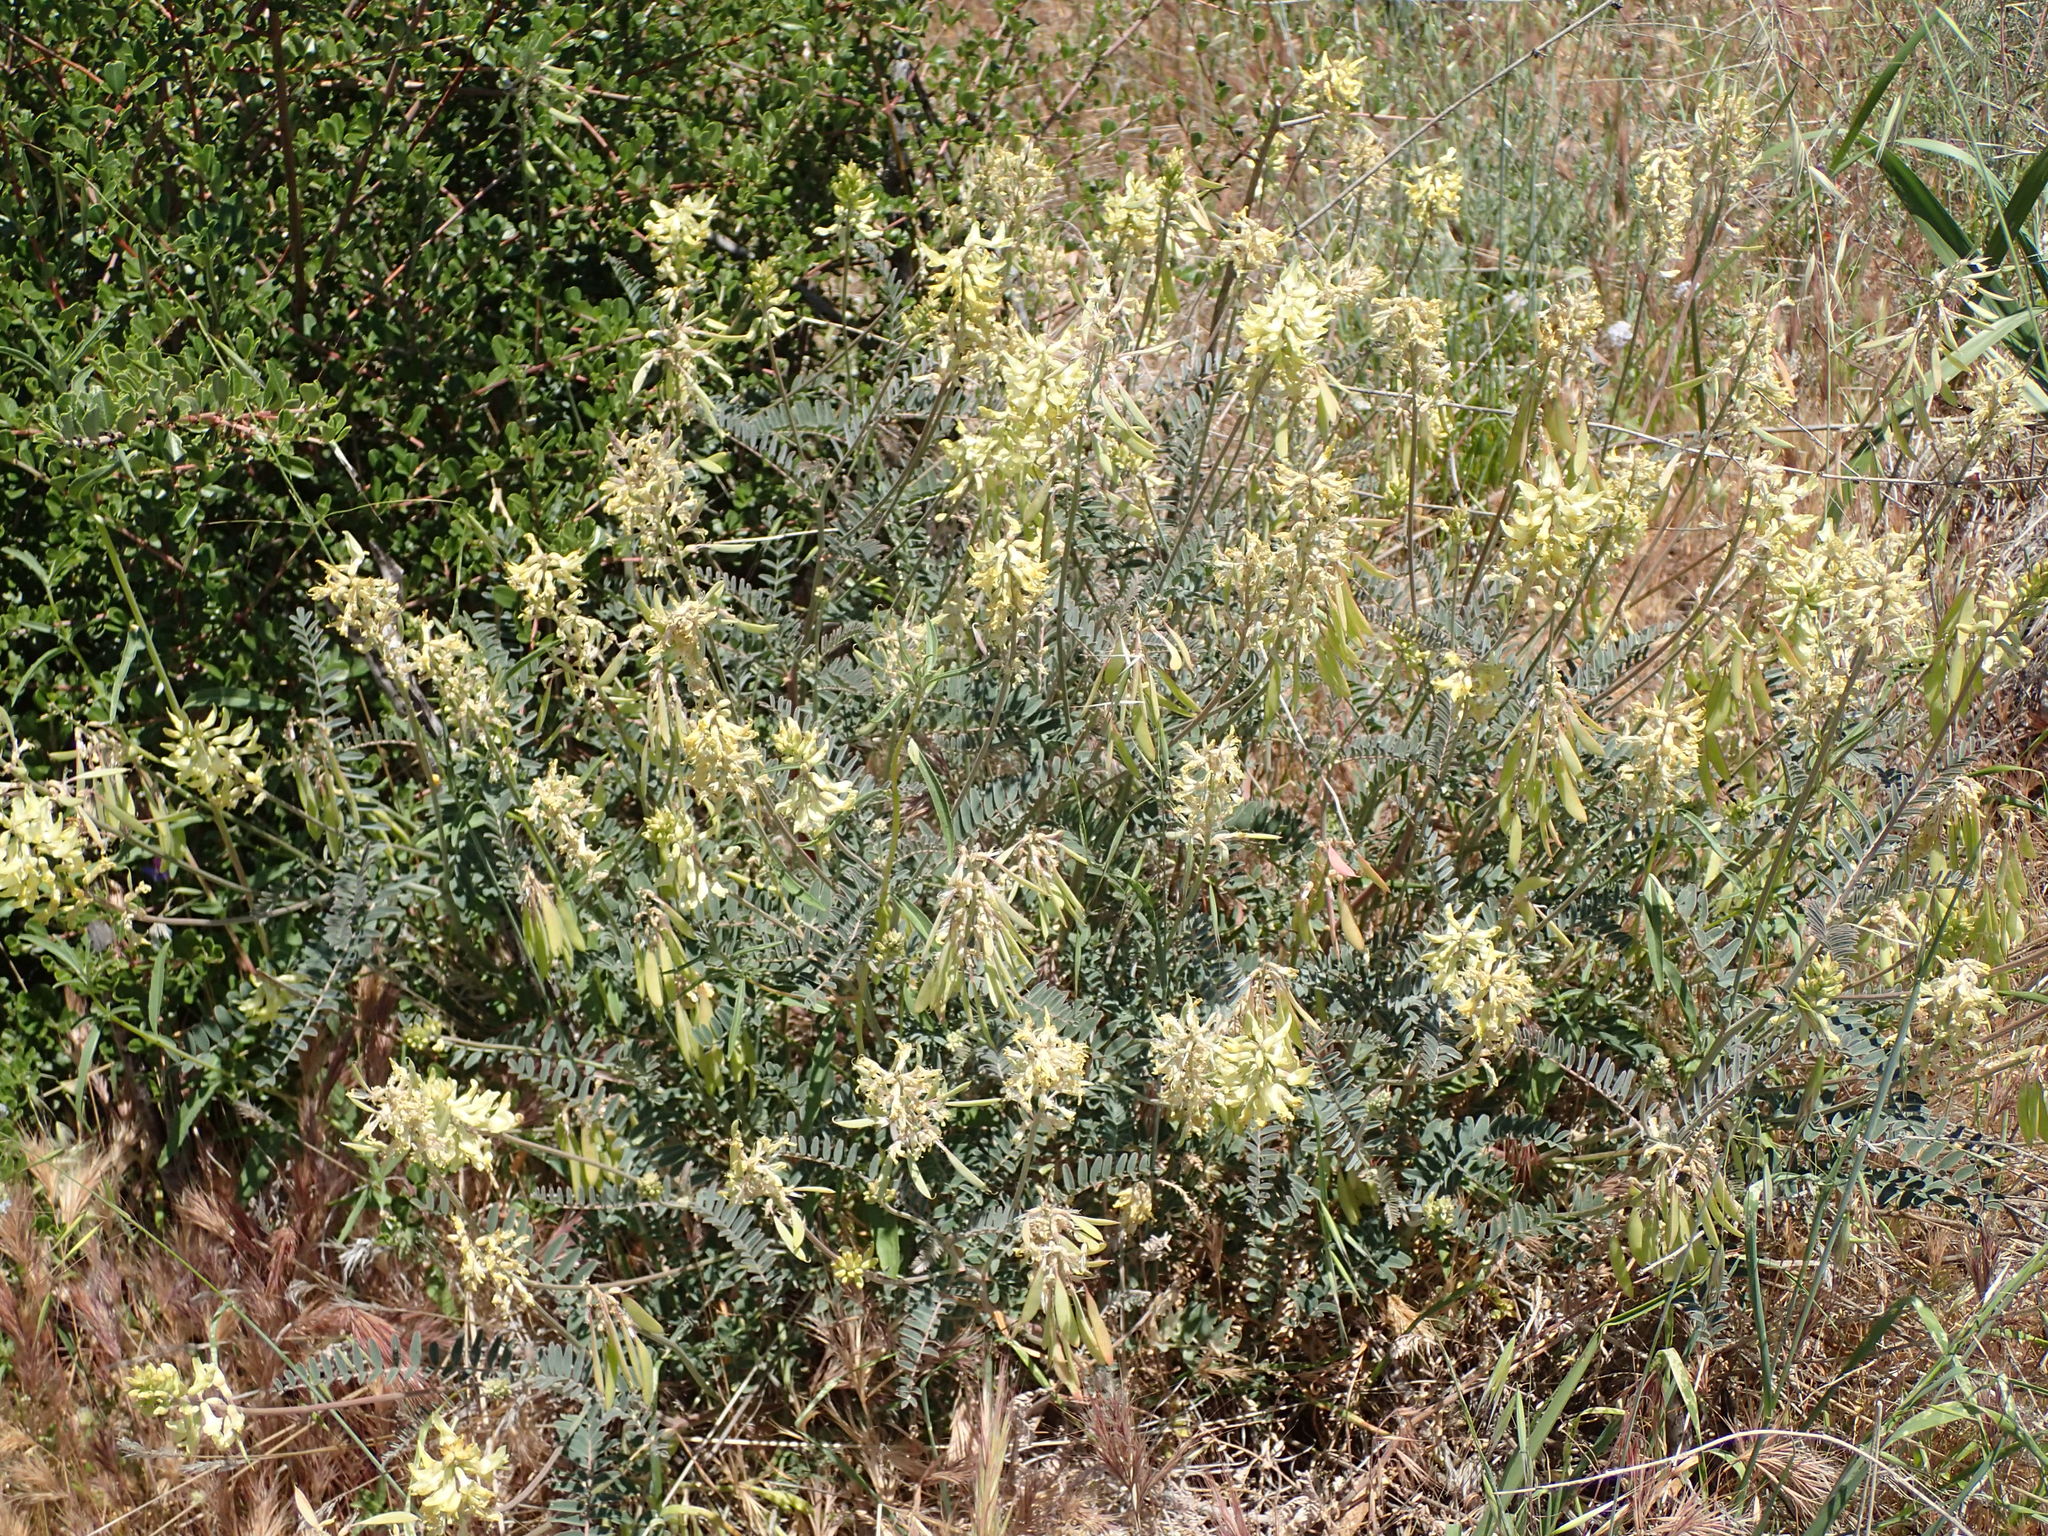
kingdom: Plantae
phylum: Tracheophyta
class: Magnoliopsida
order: Fabales
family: Fabaceae
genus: Astragalus
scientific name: Astragalus trichopodus
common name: Santa barbara milk-vetch
